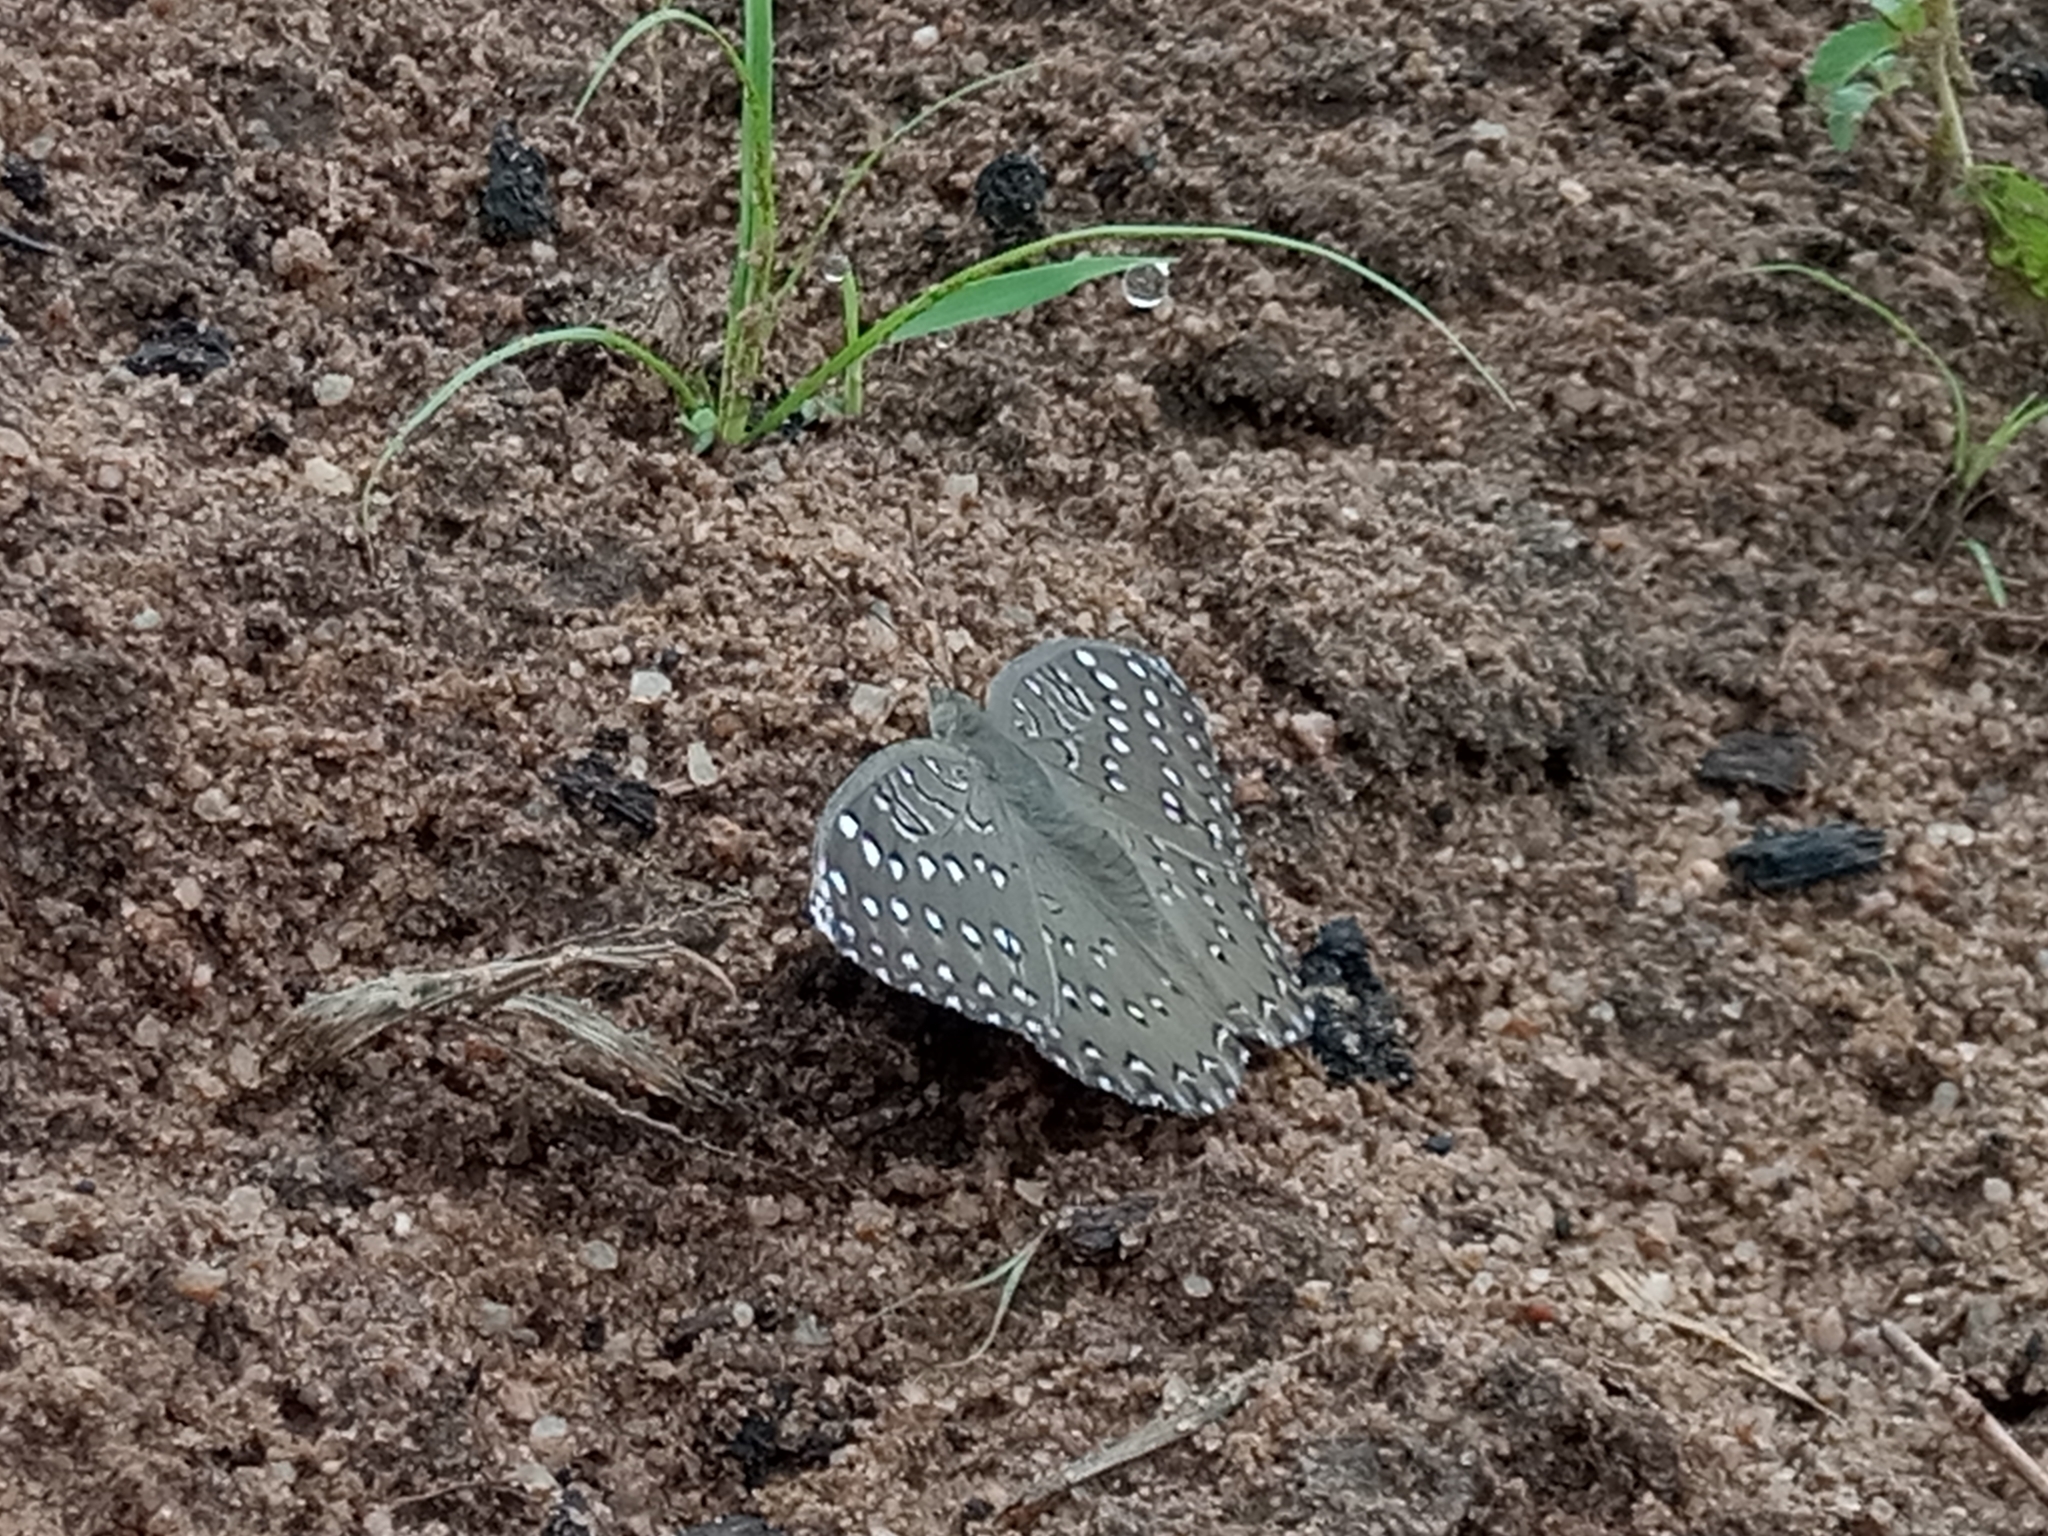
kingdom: Animalia
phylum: Arthropoda
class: Insecta
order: Lepidoptera
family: Nymphalidae
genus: Hamanumida
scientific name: Hamanumida daedalus
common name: Guinea-fowl butterfly
